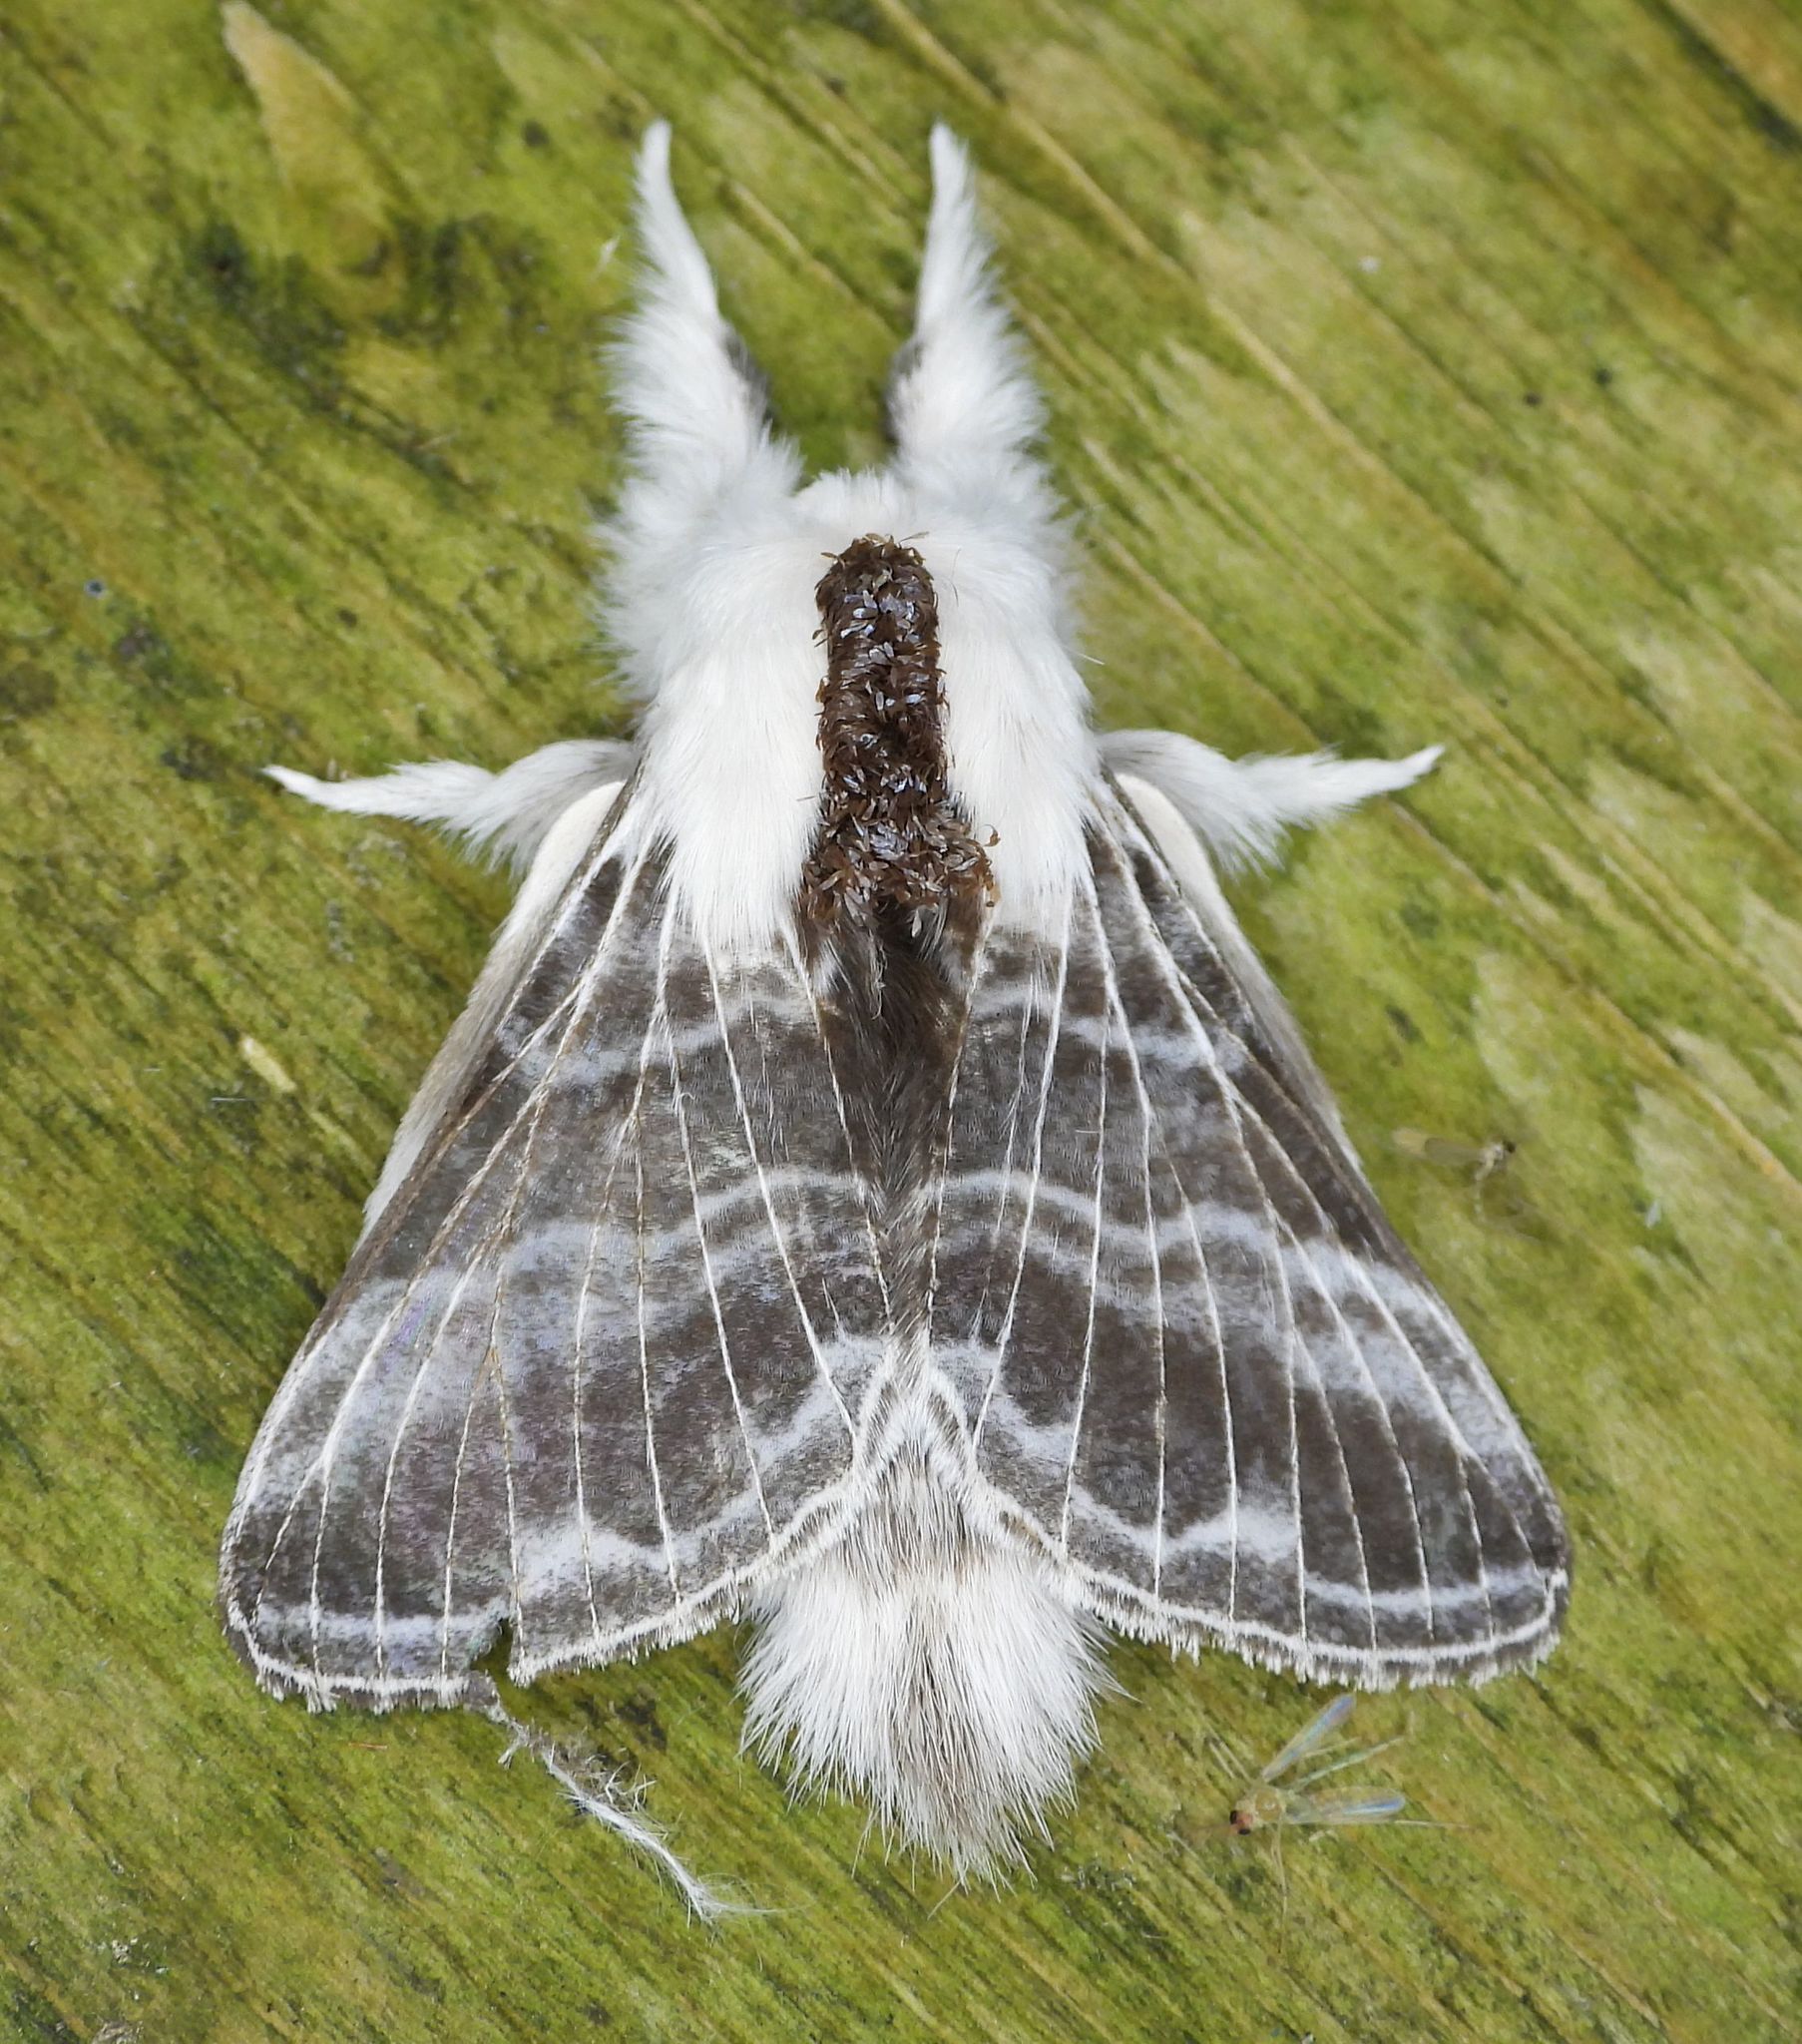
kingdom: Animalia
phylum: Arthropoda
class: Insecta
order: Lepidoptera
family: Lasiocampidae
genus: Tolype
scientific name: Tolype velleda
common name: Large tolype moth
